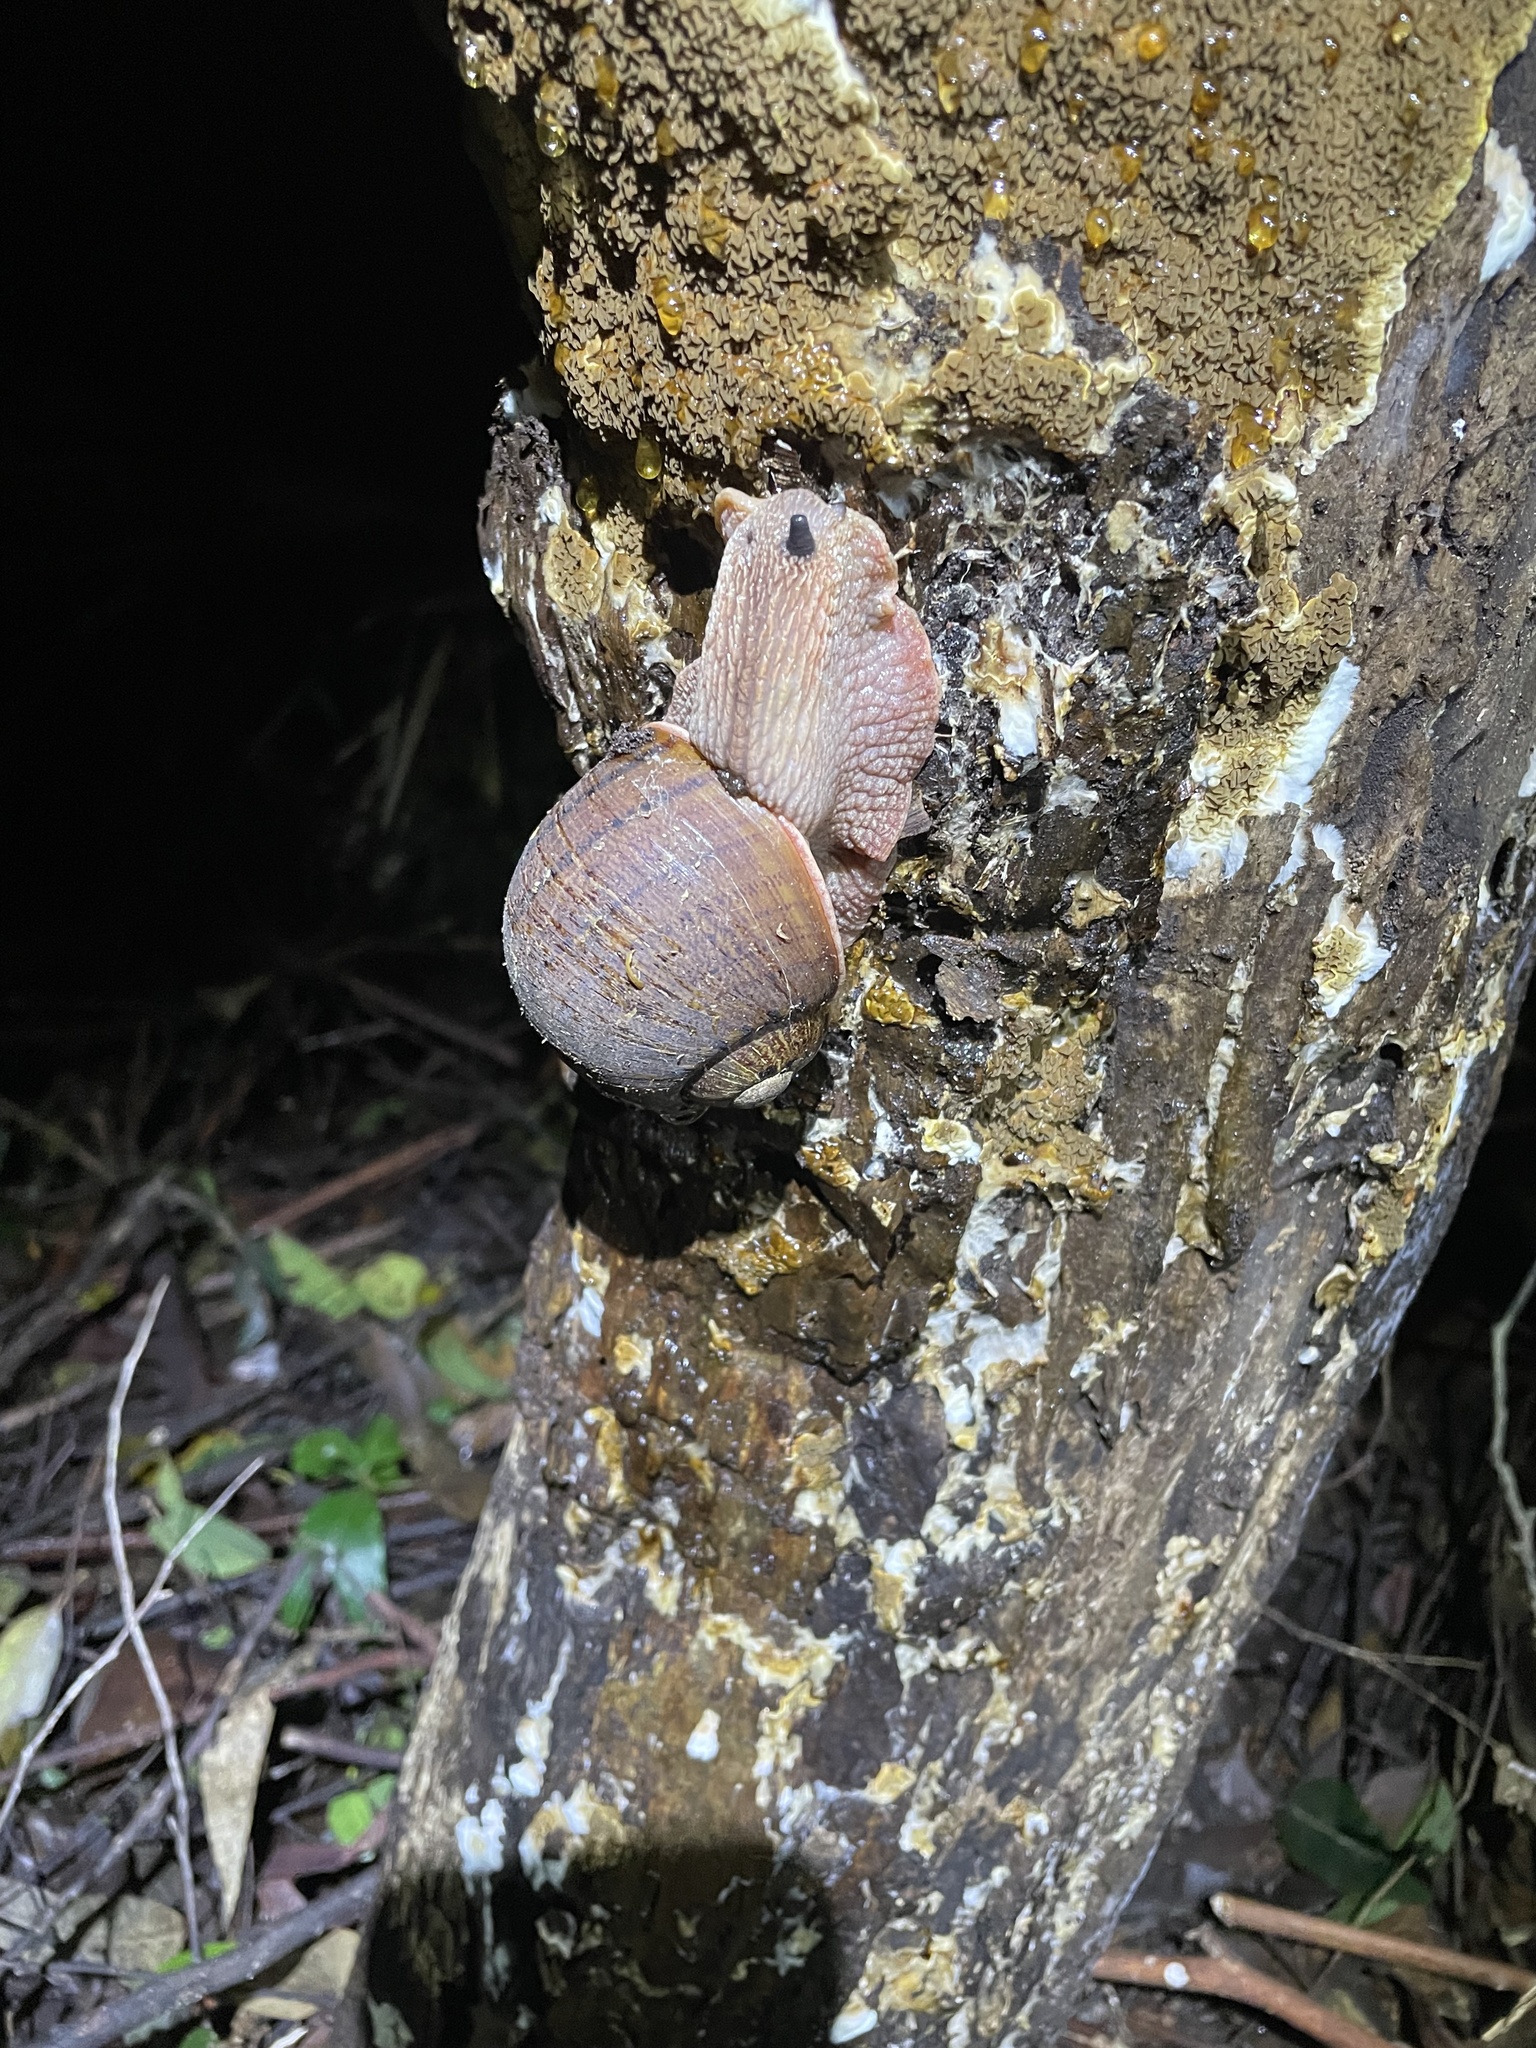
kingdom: Animalia
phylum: Mollusca
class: Gastropoda
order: Stylommatophora
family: Caryodidae
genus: Hedleyella
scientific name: Hedleyella falconeri
